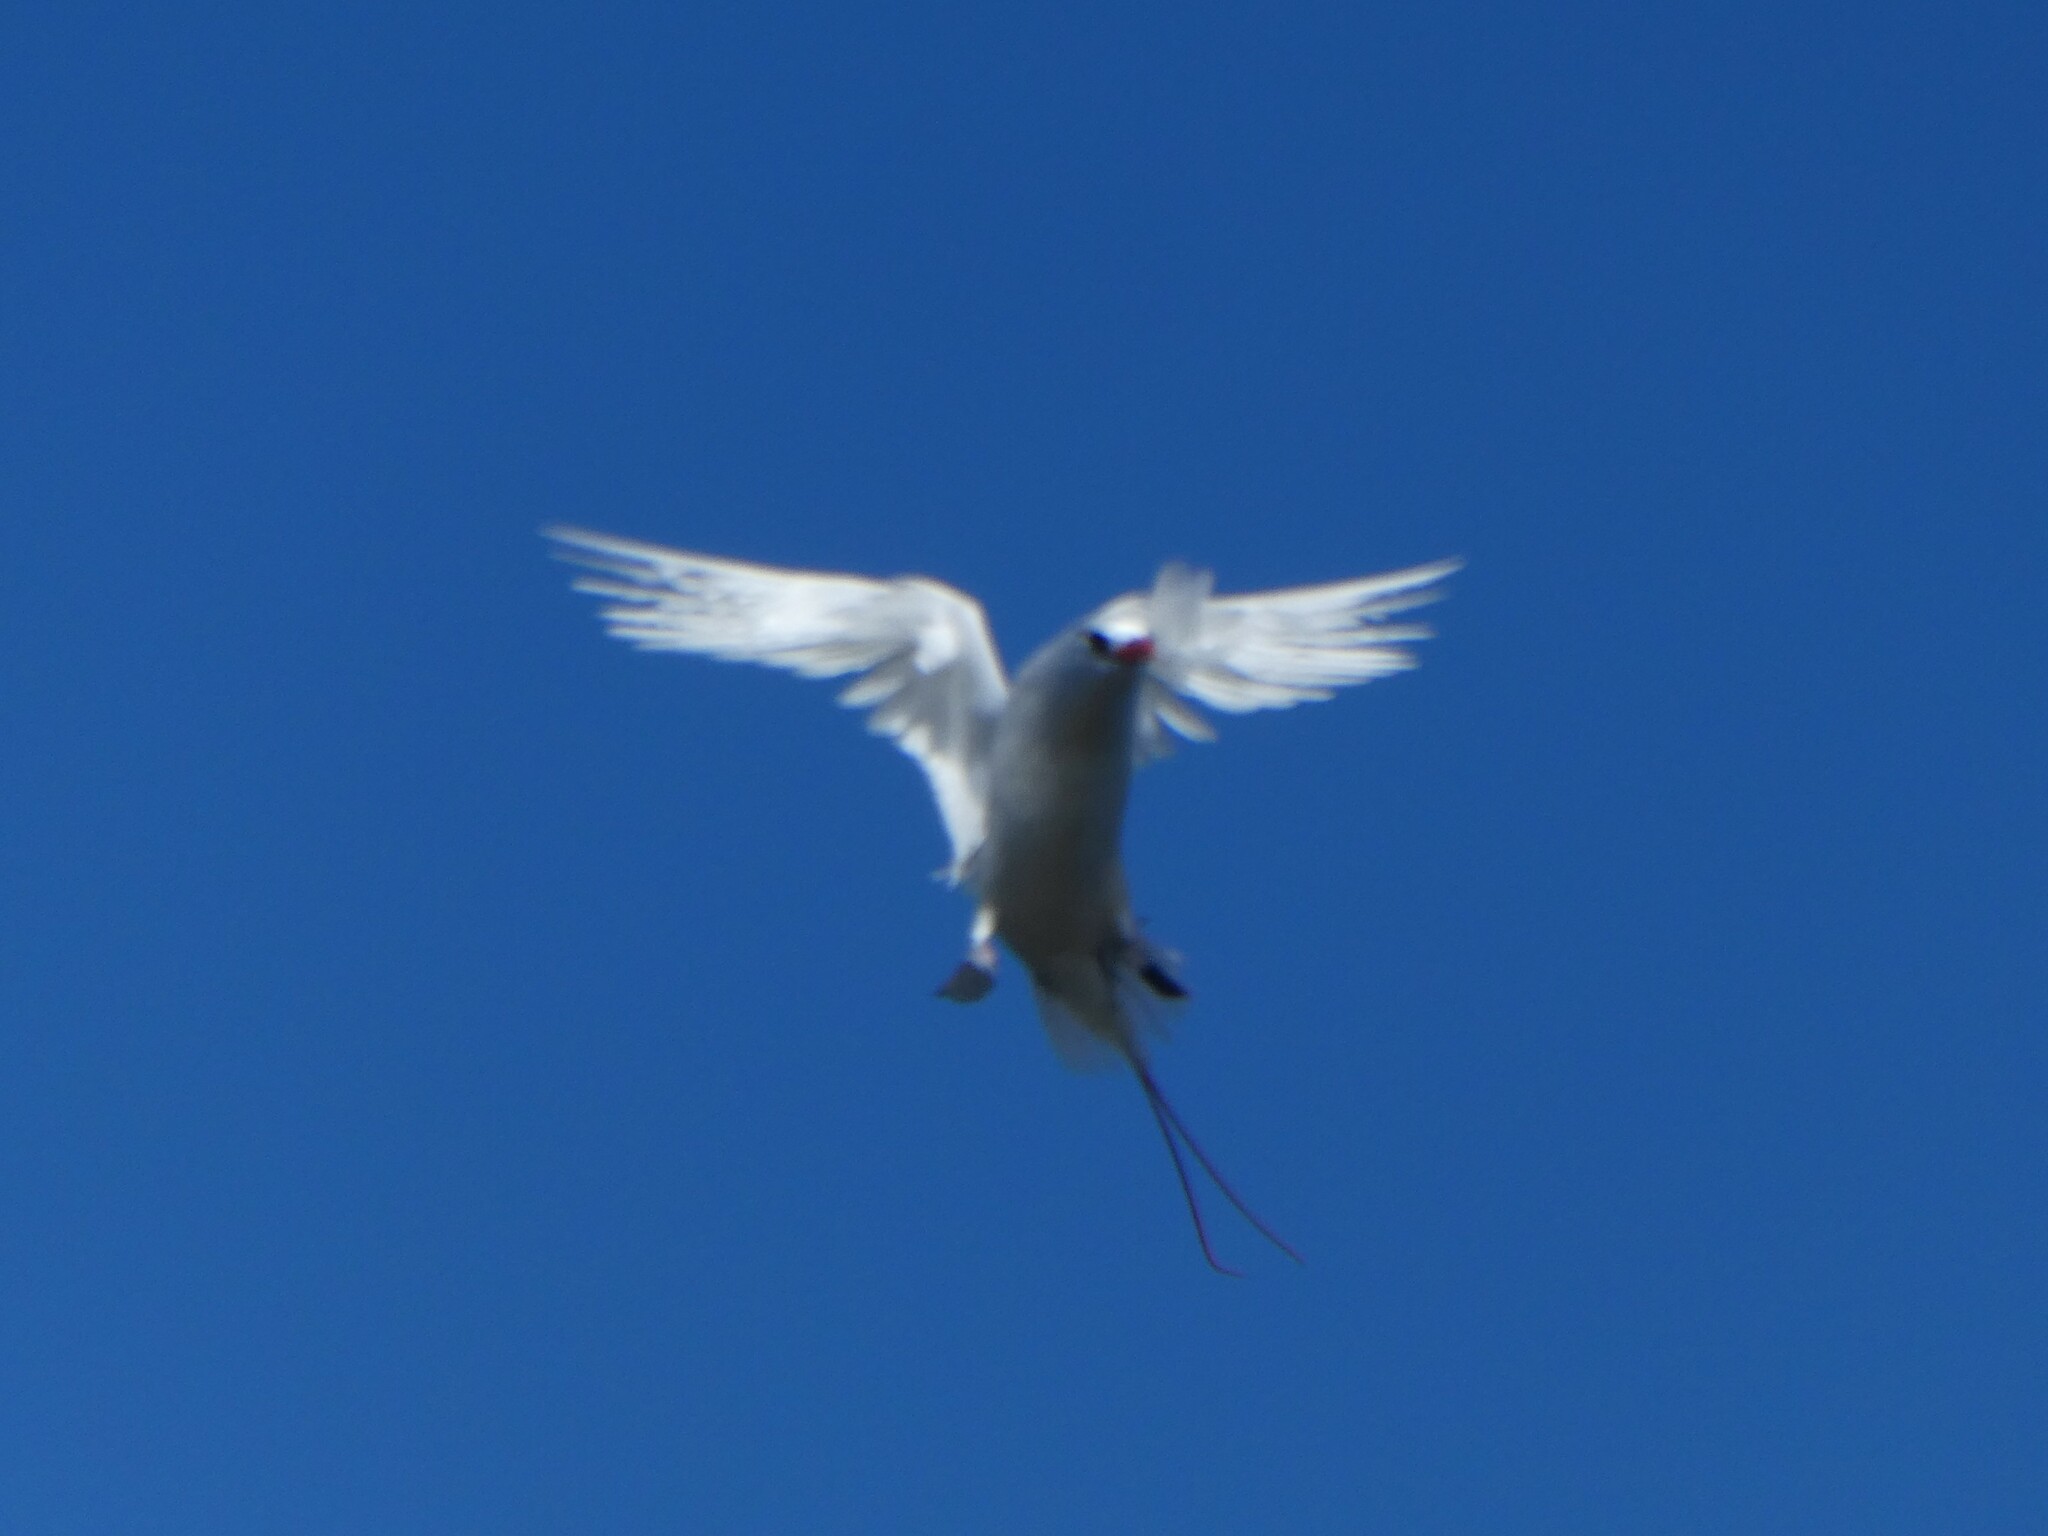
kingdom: Animalia
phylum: Chordata
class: Aves
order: Phaethontiformes
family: Phaethontidae
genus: Phaethon
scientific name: Phaethon rubricauda
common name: Red-tailed tropicbird
